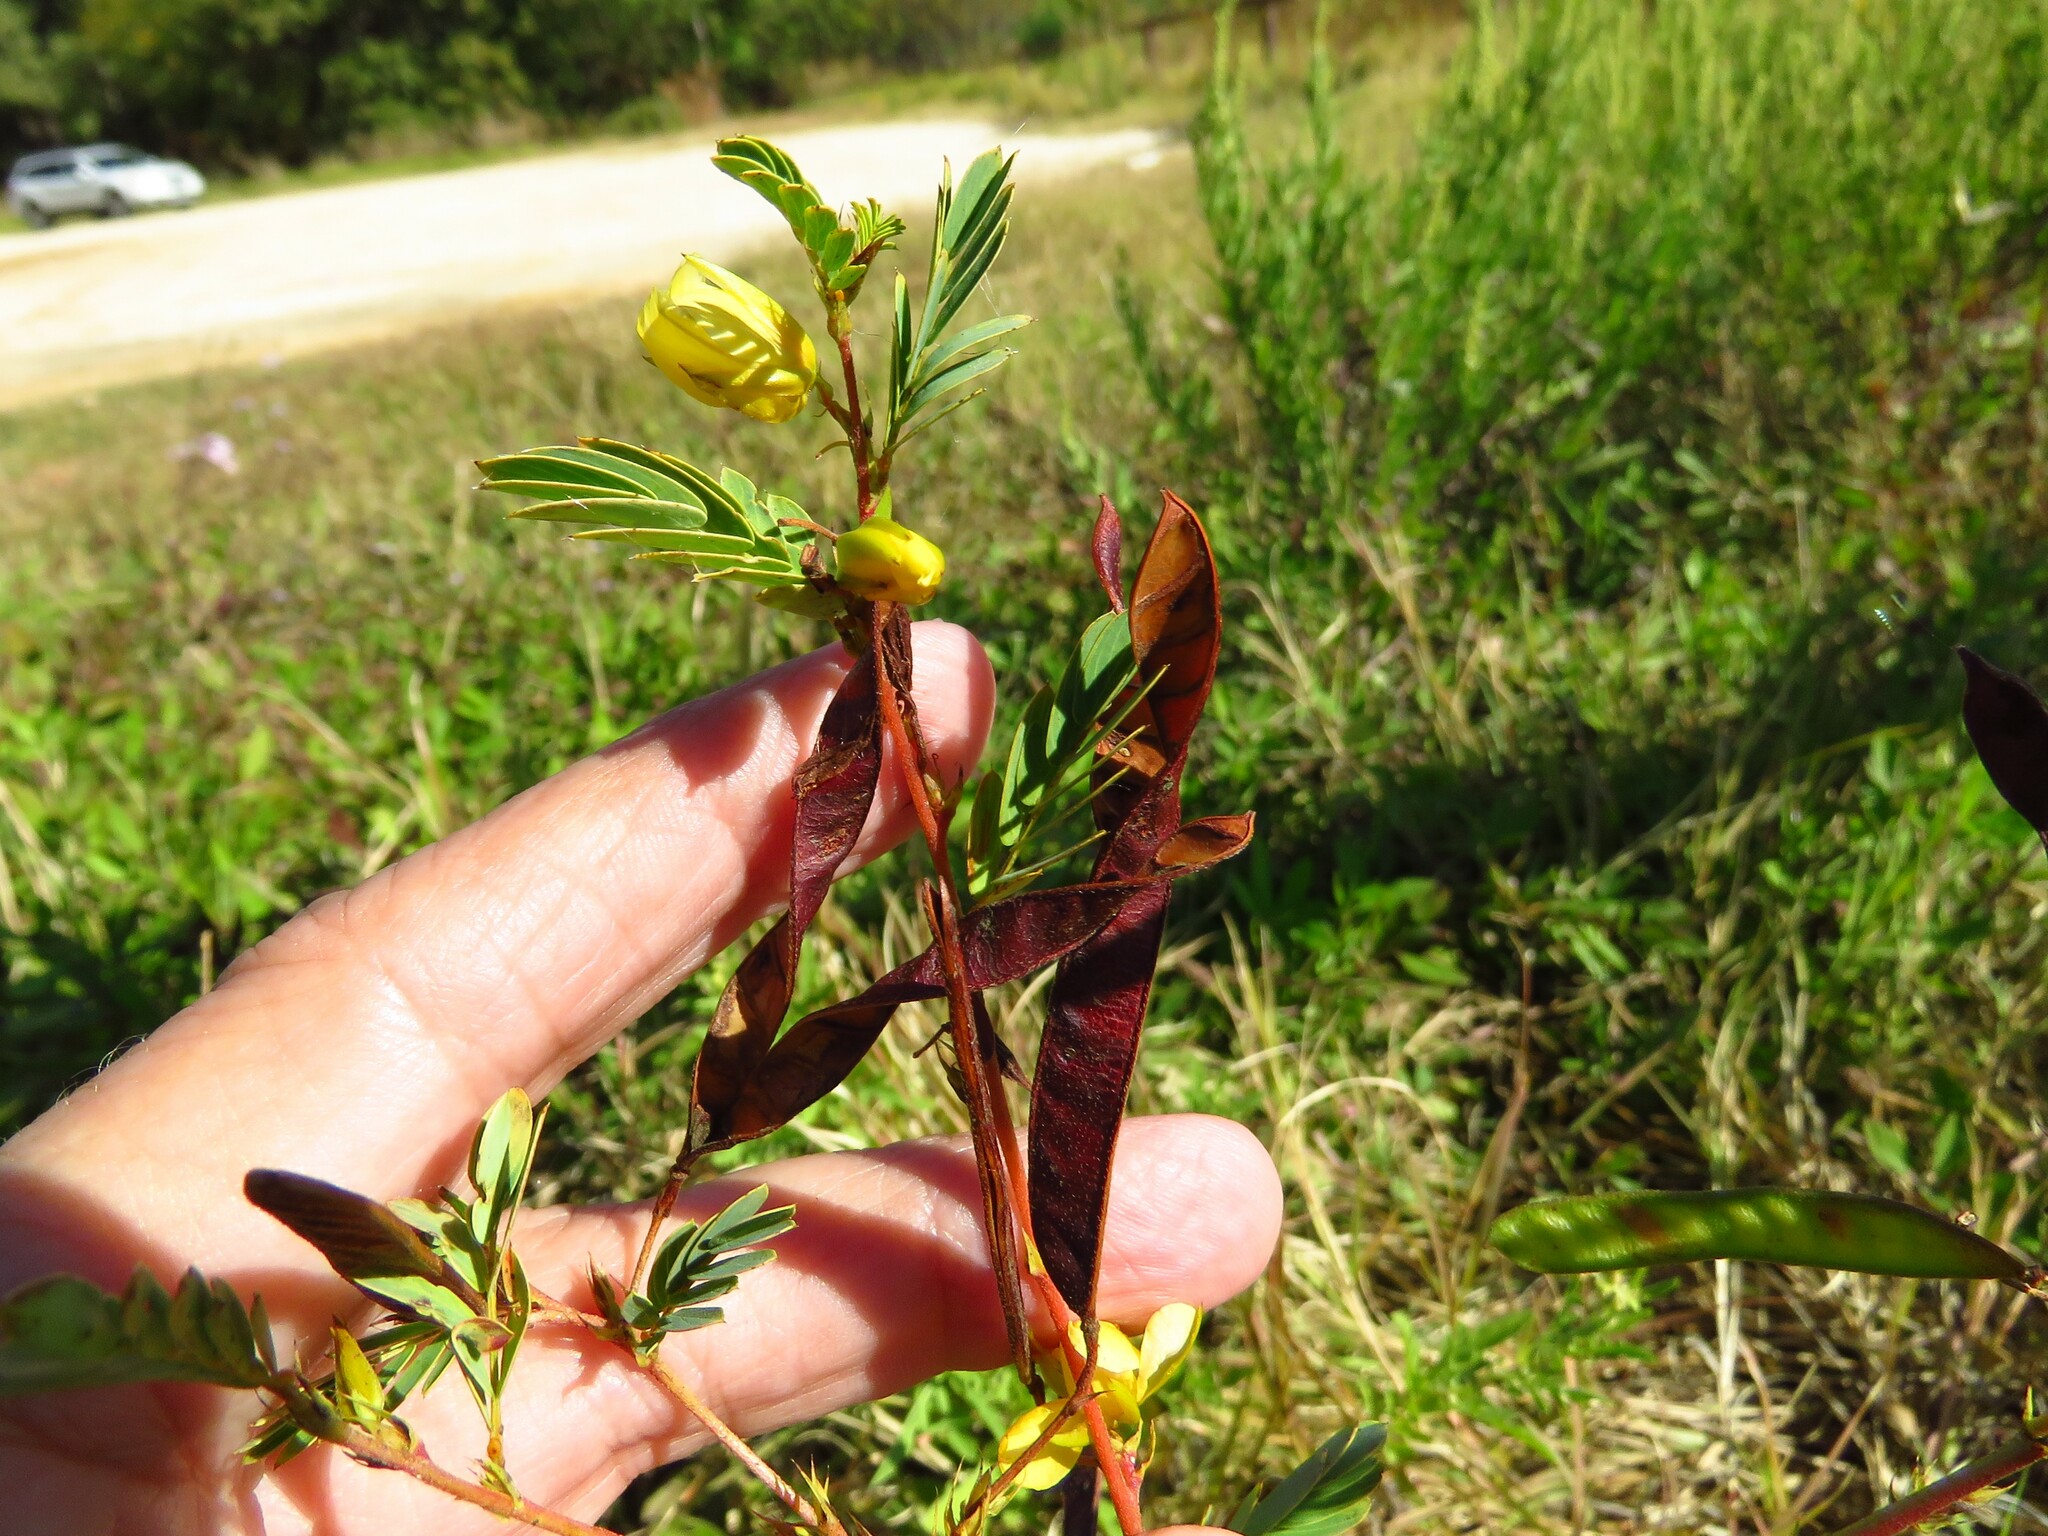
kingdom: Plantae
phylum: Tracheophyta
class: Magnoliopsida
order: Fabales
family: Fabaceae
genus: Chamaecrista
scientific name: Chamaecrista fasciculata
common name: Golden cassia
